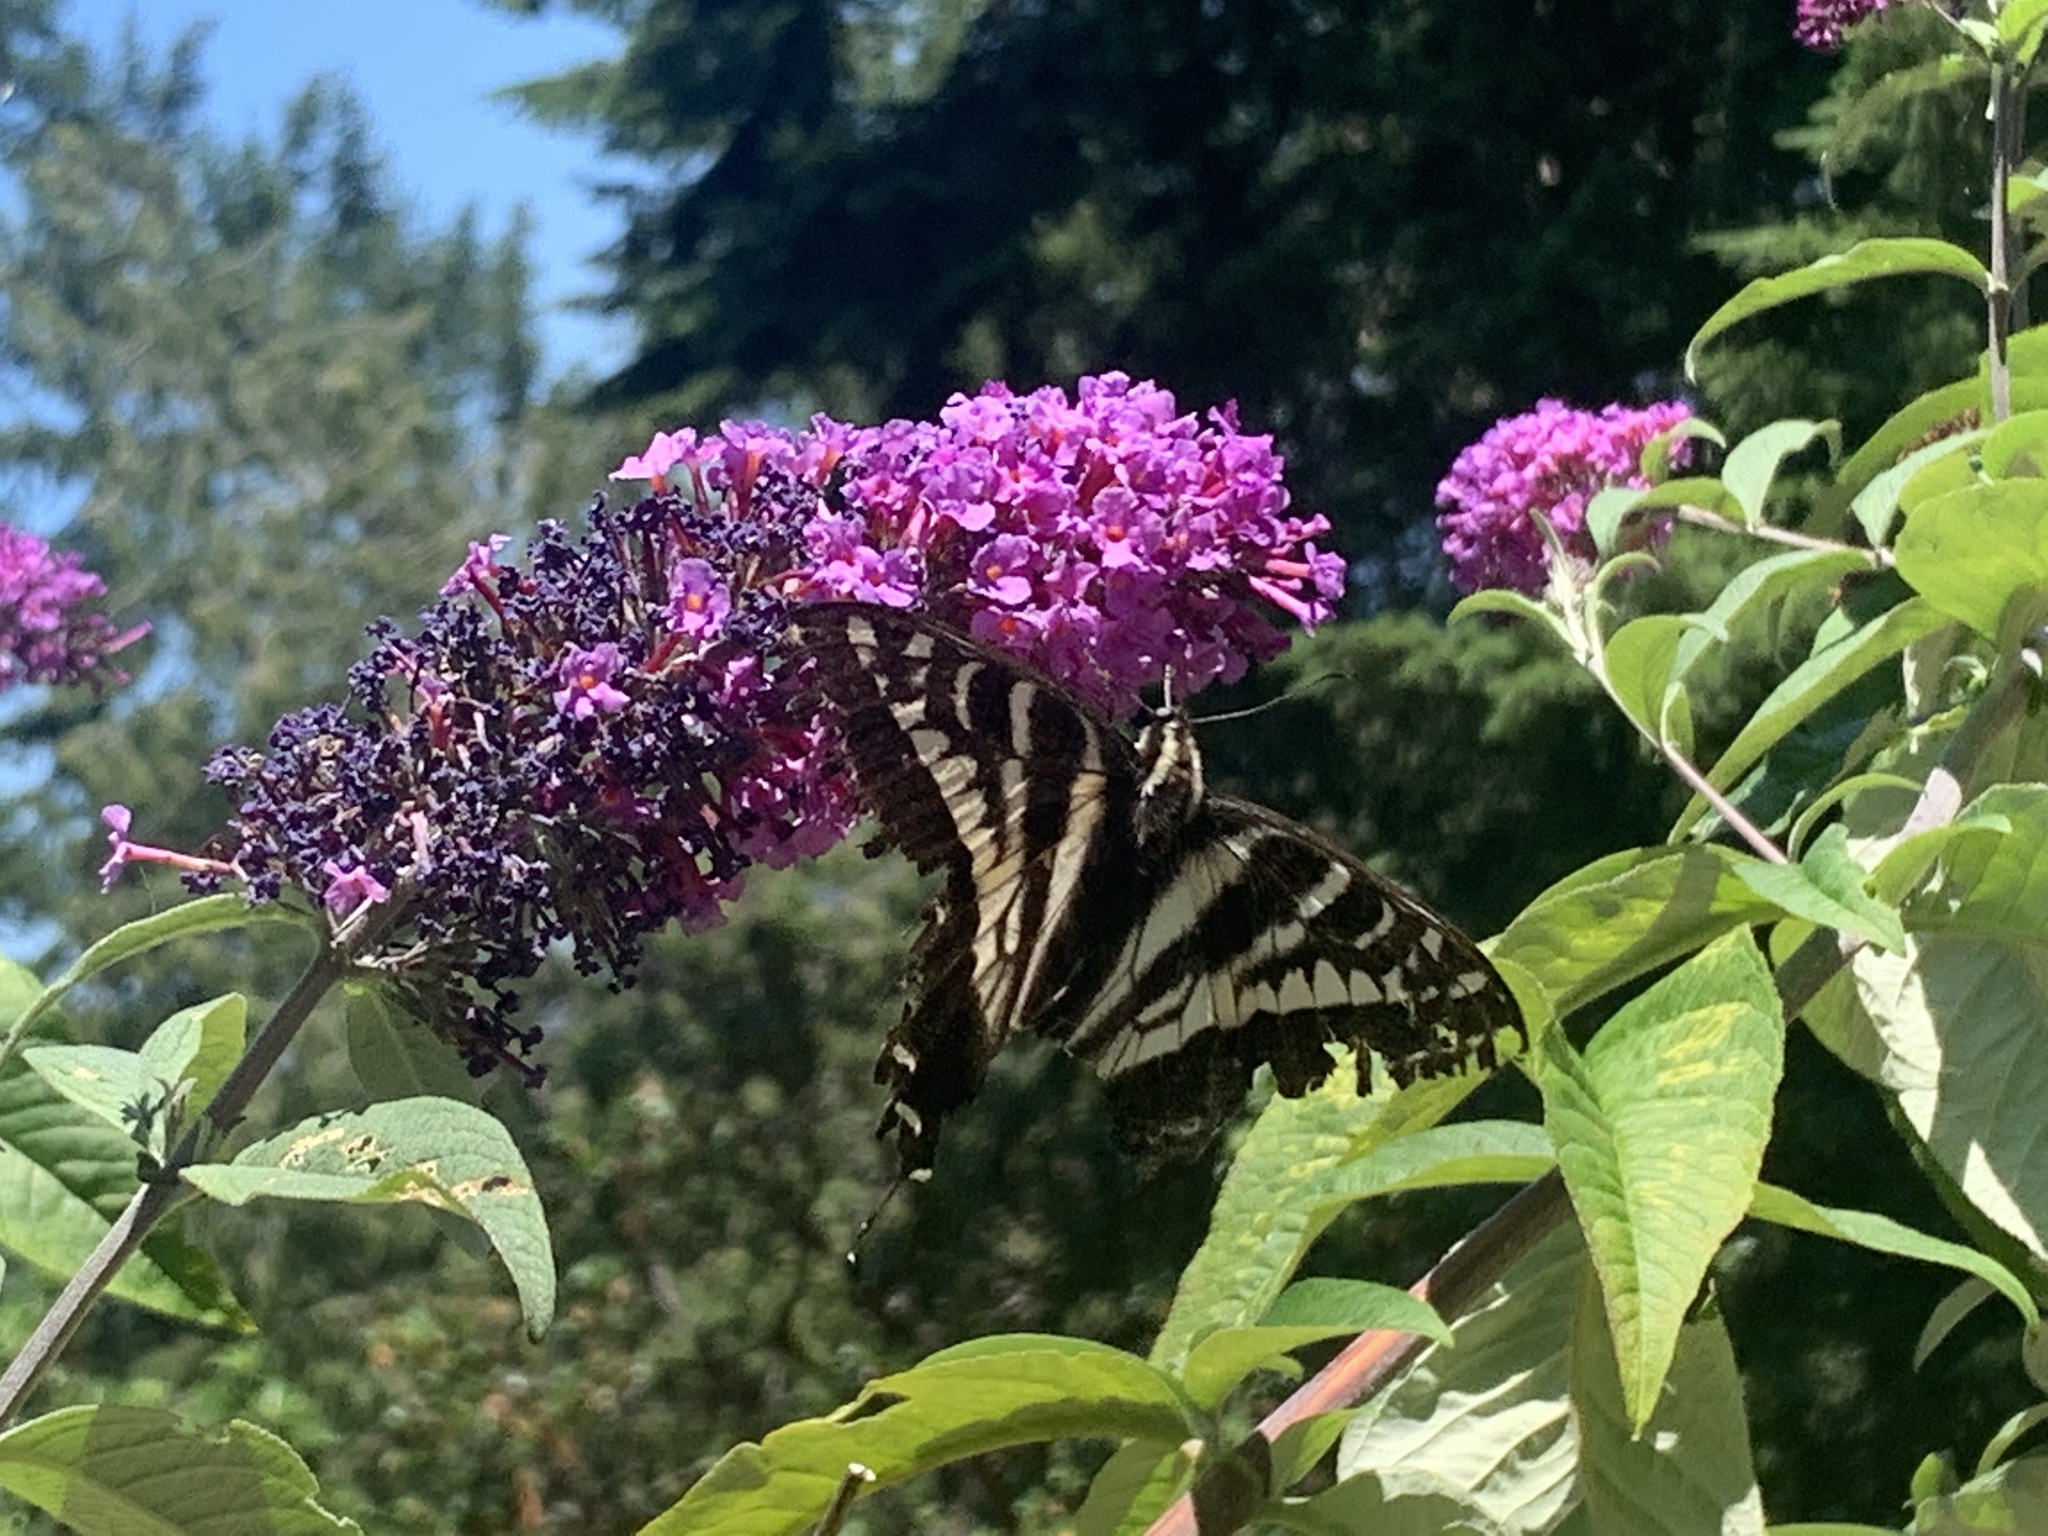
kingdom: Animalia
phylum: Arthropoda
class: Insecta
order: Lepidoptera
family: Papilionidae
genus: Papilio
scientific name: Papilio eurymedon
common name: Pale tiger swallowtail
